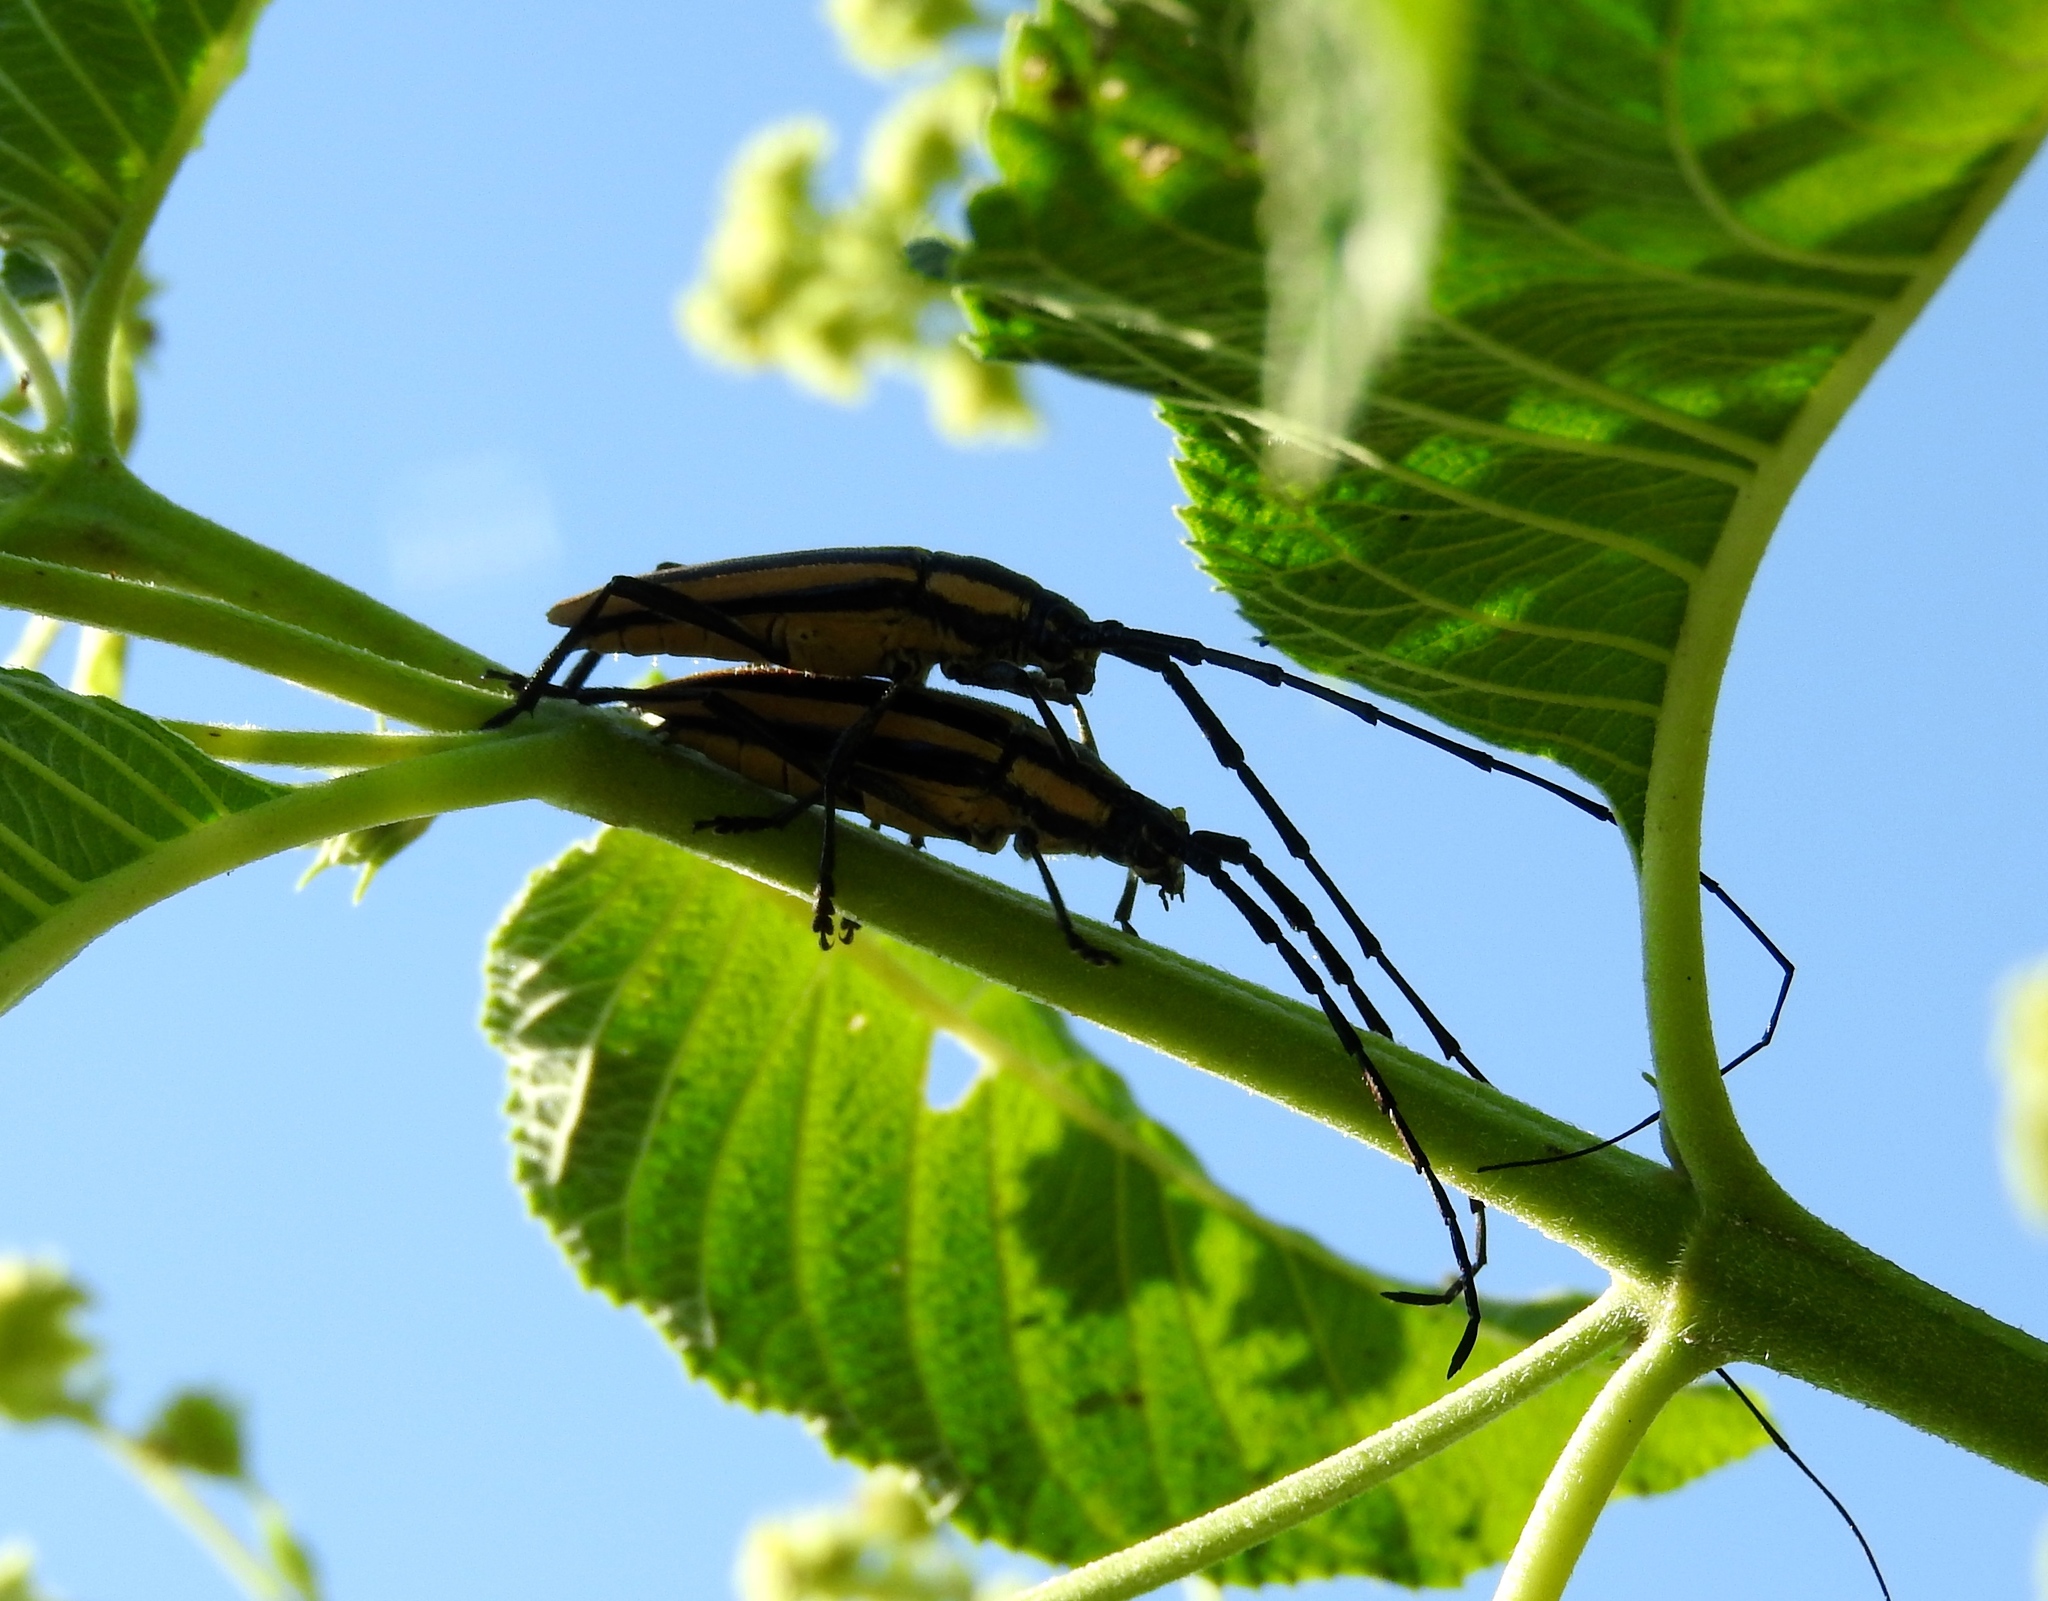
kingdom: Animalia
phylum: Arthropoda
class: Insecta
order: Coleoptera
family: Cerambycidae
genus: Sphaenothecus
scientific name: Sphaenothecus trilineatus
